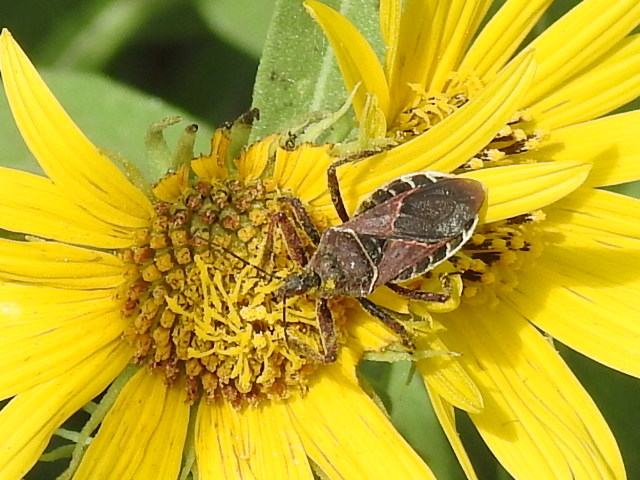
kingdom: Animalia
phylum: Arthropoda
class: Insecta
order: Hemiptera
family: Reduviidae
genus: Apiomerus
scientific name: Apiomerus spissipes
